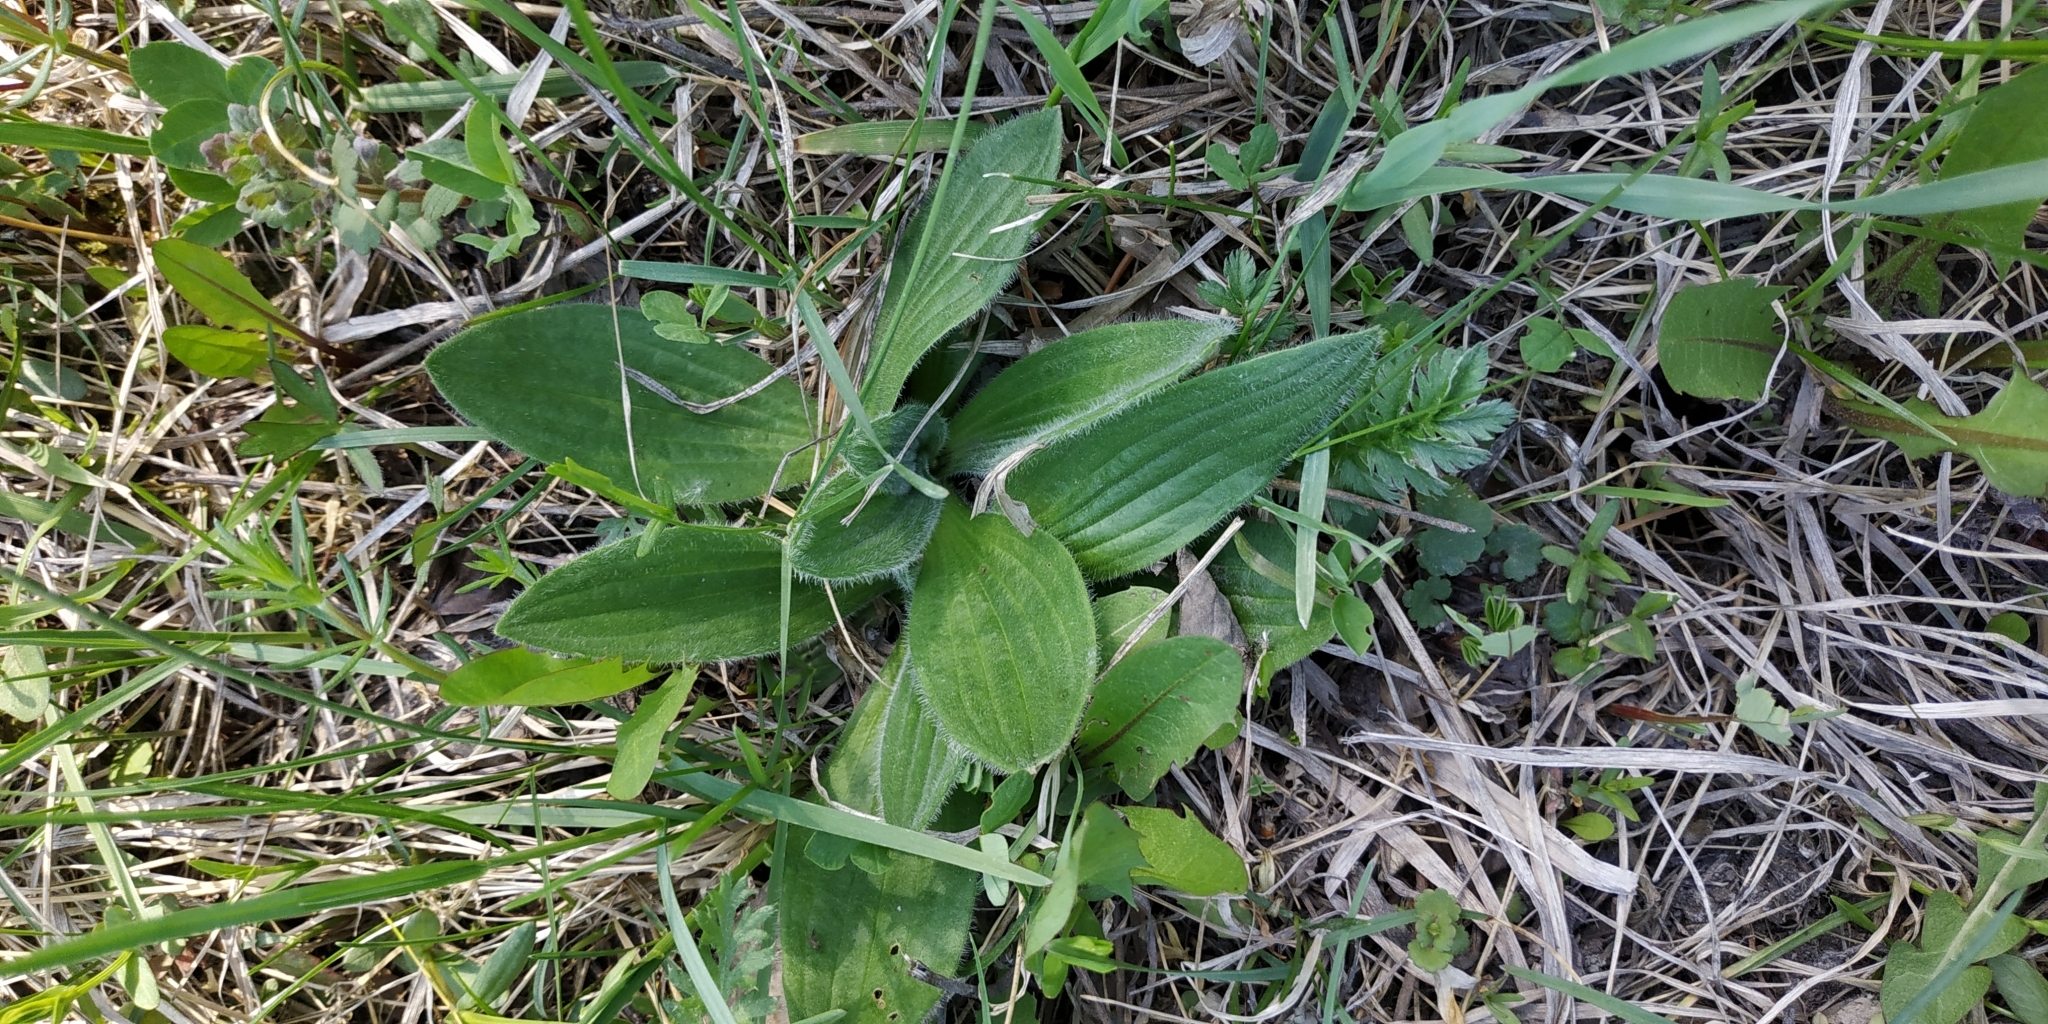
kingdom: Plantae
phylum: Tracheophyta
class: Magnoliopsida
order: Lamiales
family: Plantaginaceae
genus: Plantago
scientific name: Plantago media
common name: Hoary plantain
